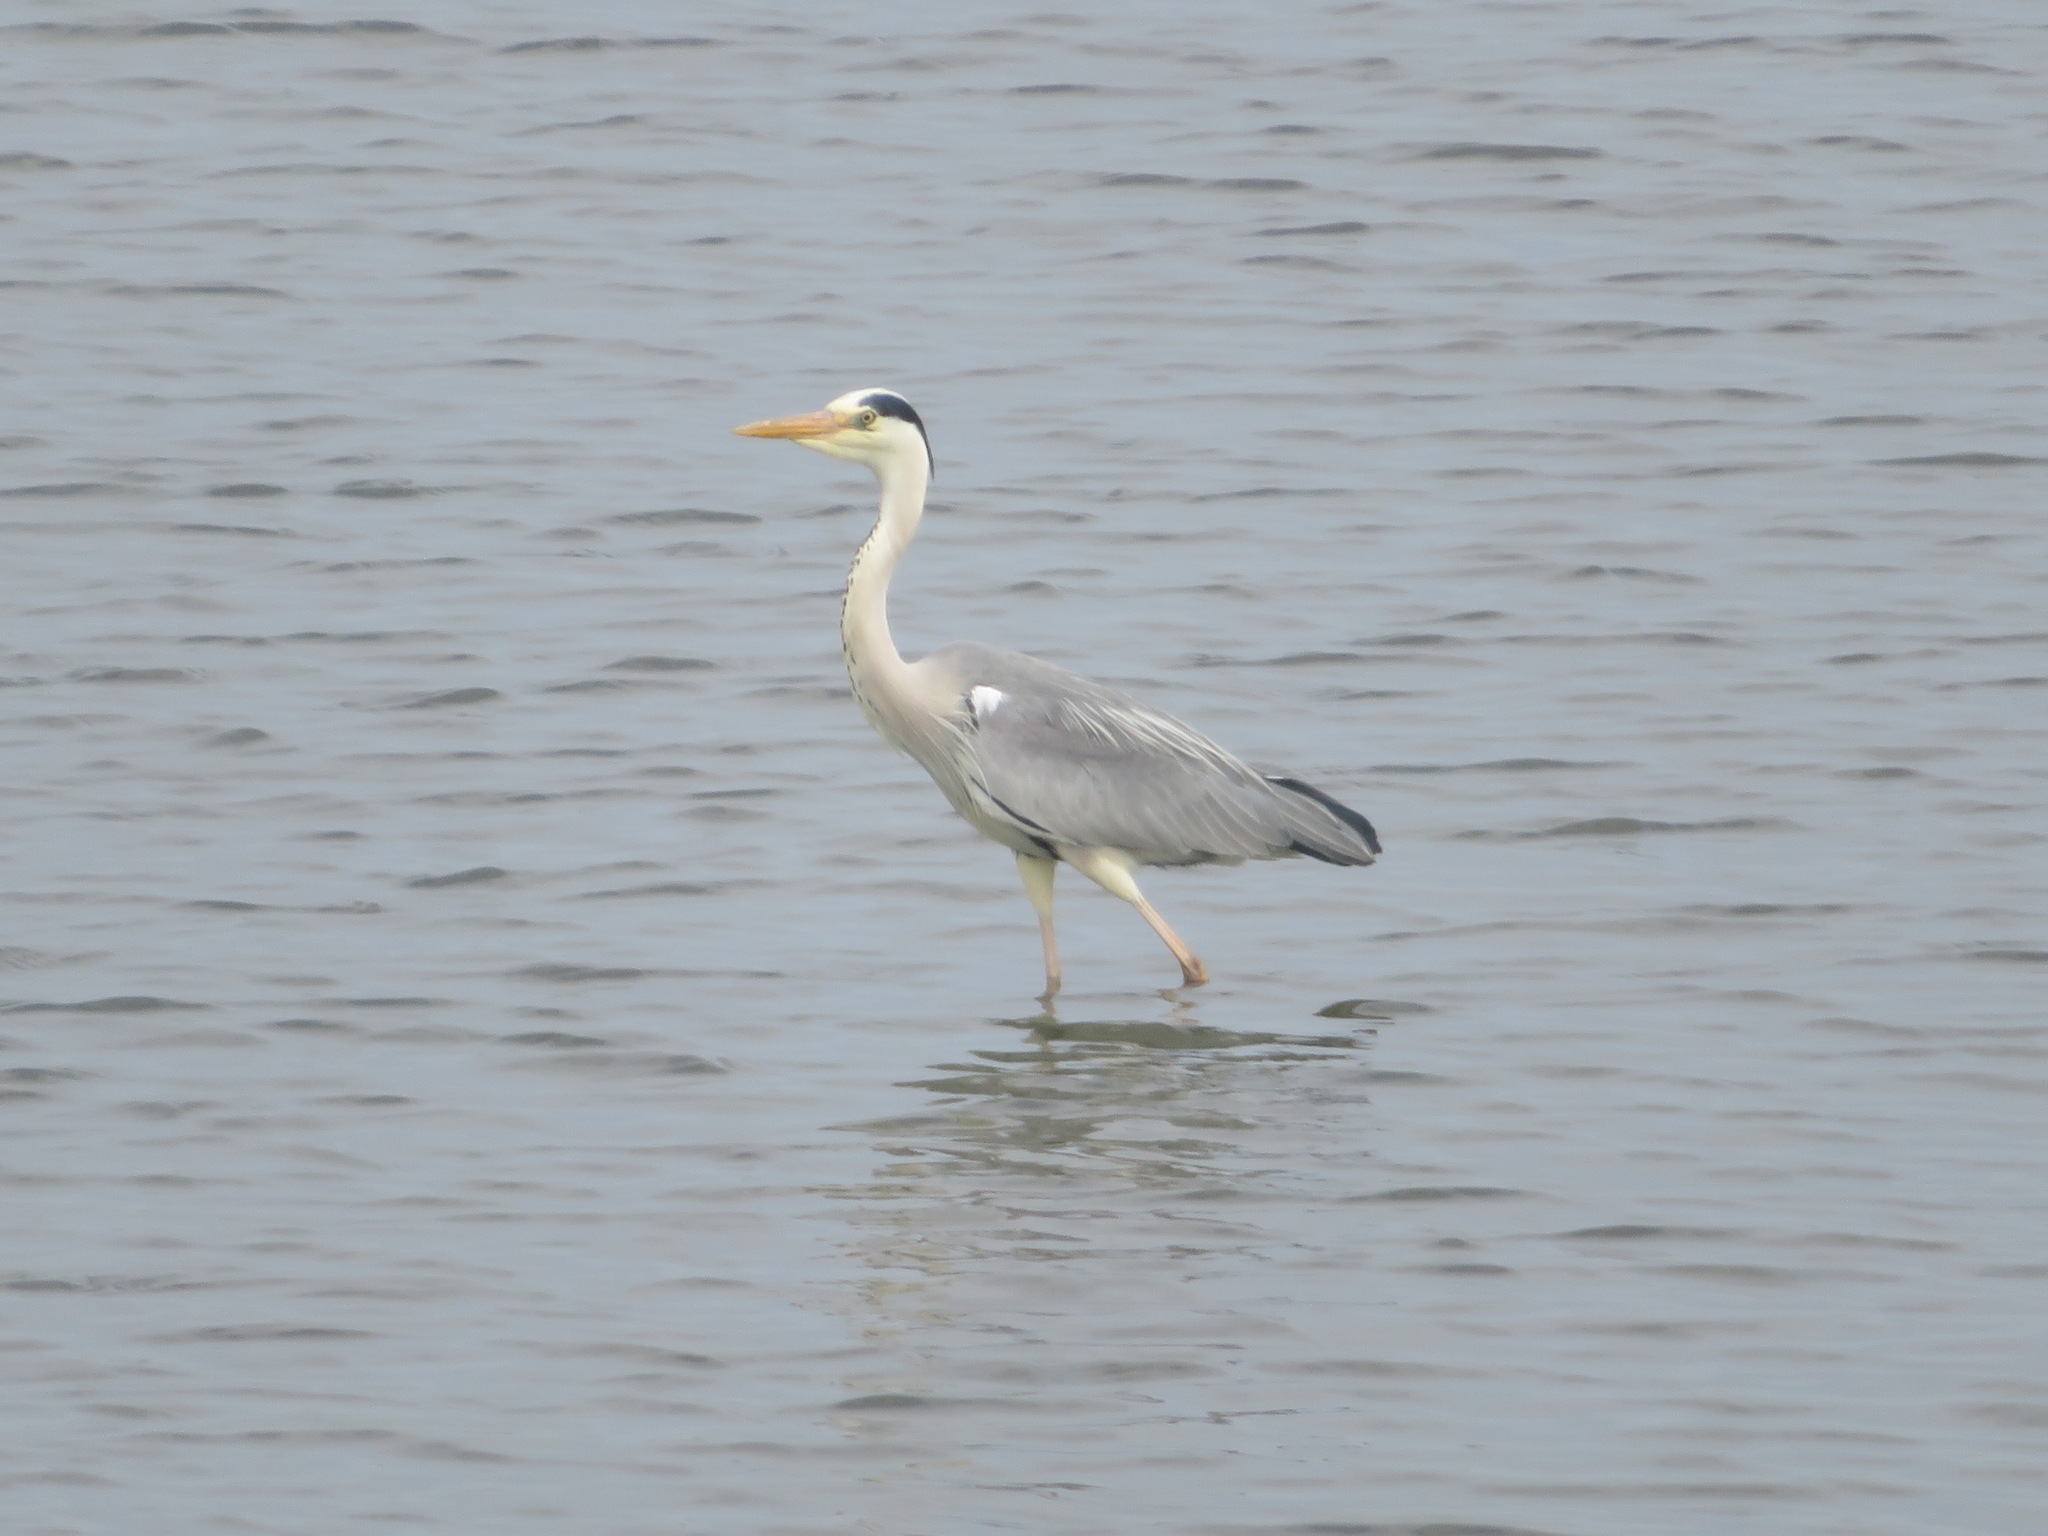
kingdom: Animalia
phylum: Chordata
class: Aves
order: Pelecaniformes
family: Ardeidae
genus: Ardea
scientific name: Ardea cinerea
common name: Grey heron
